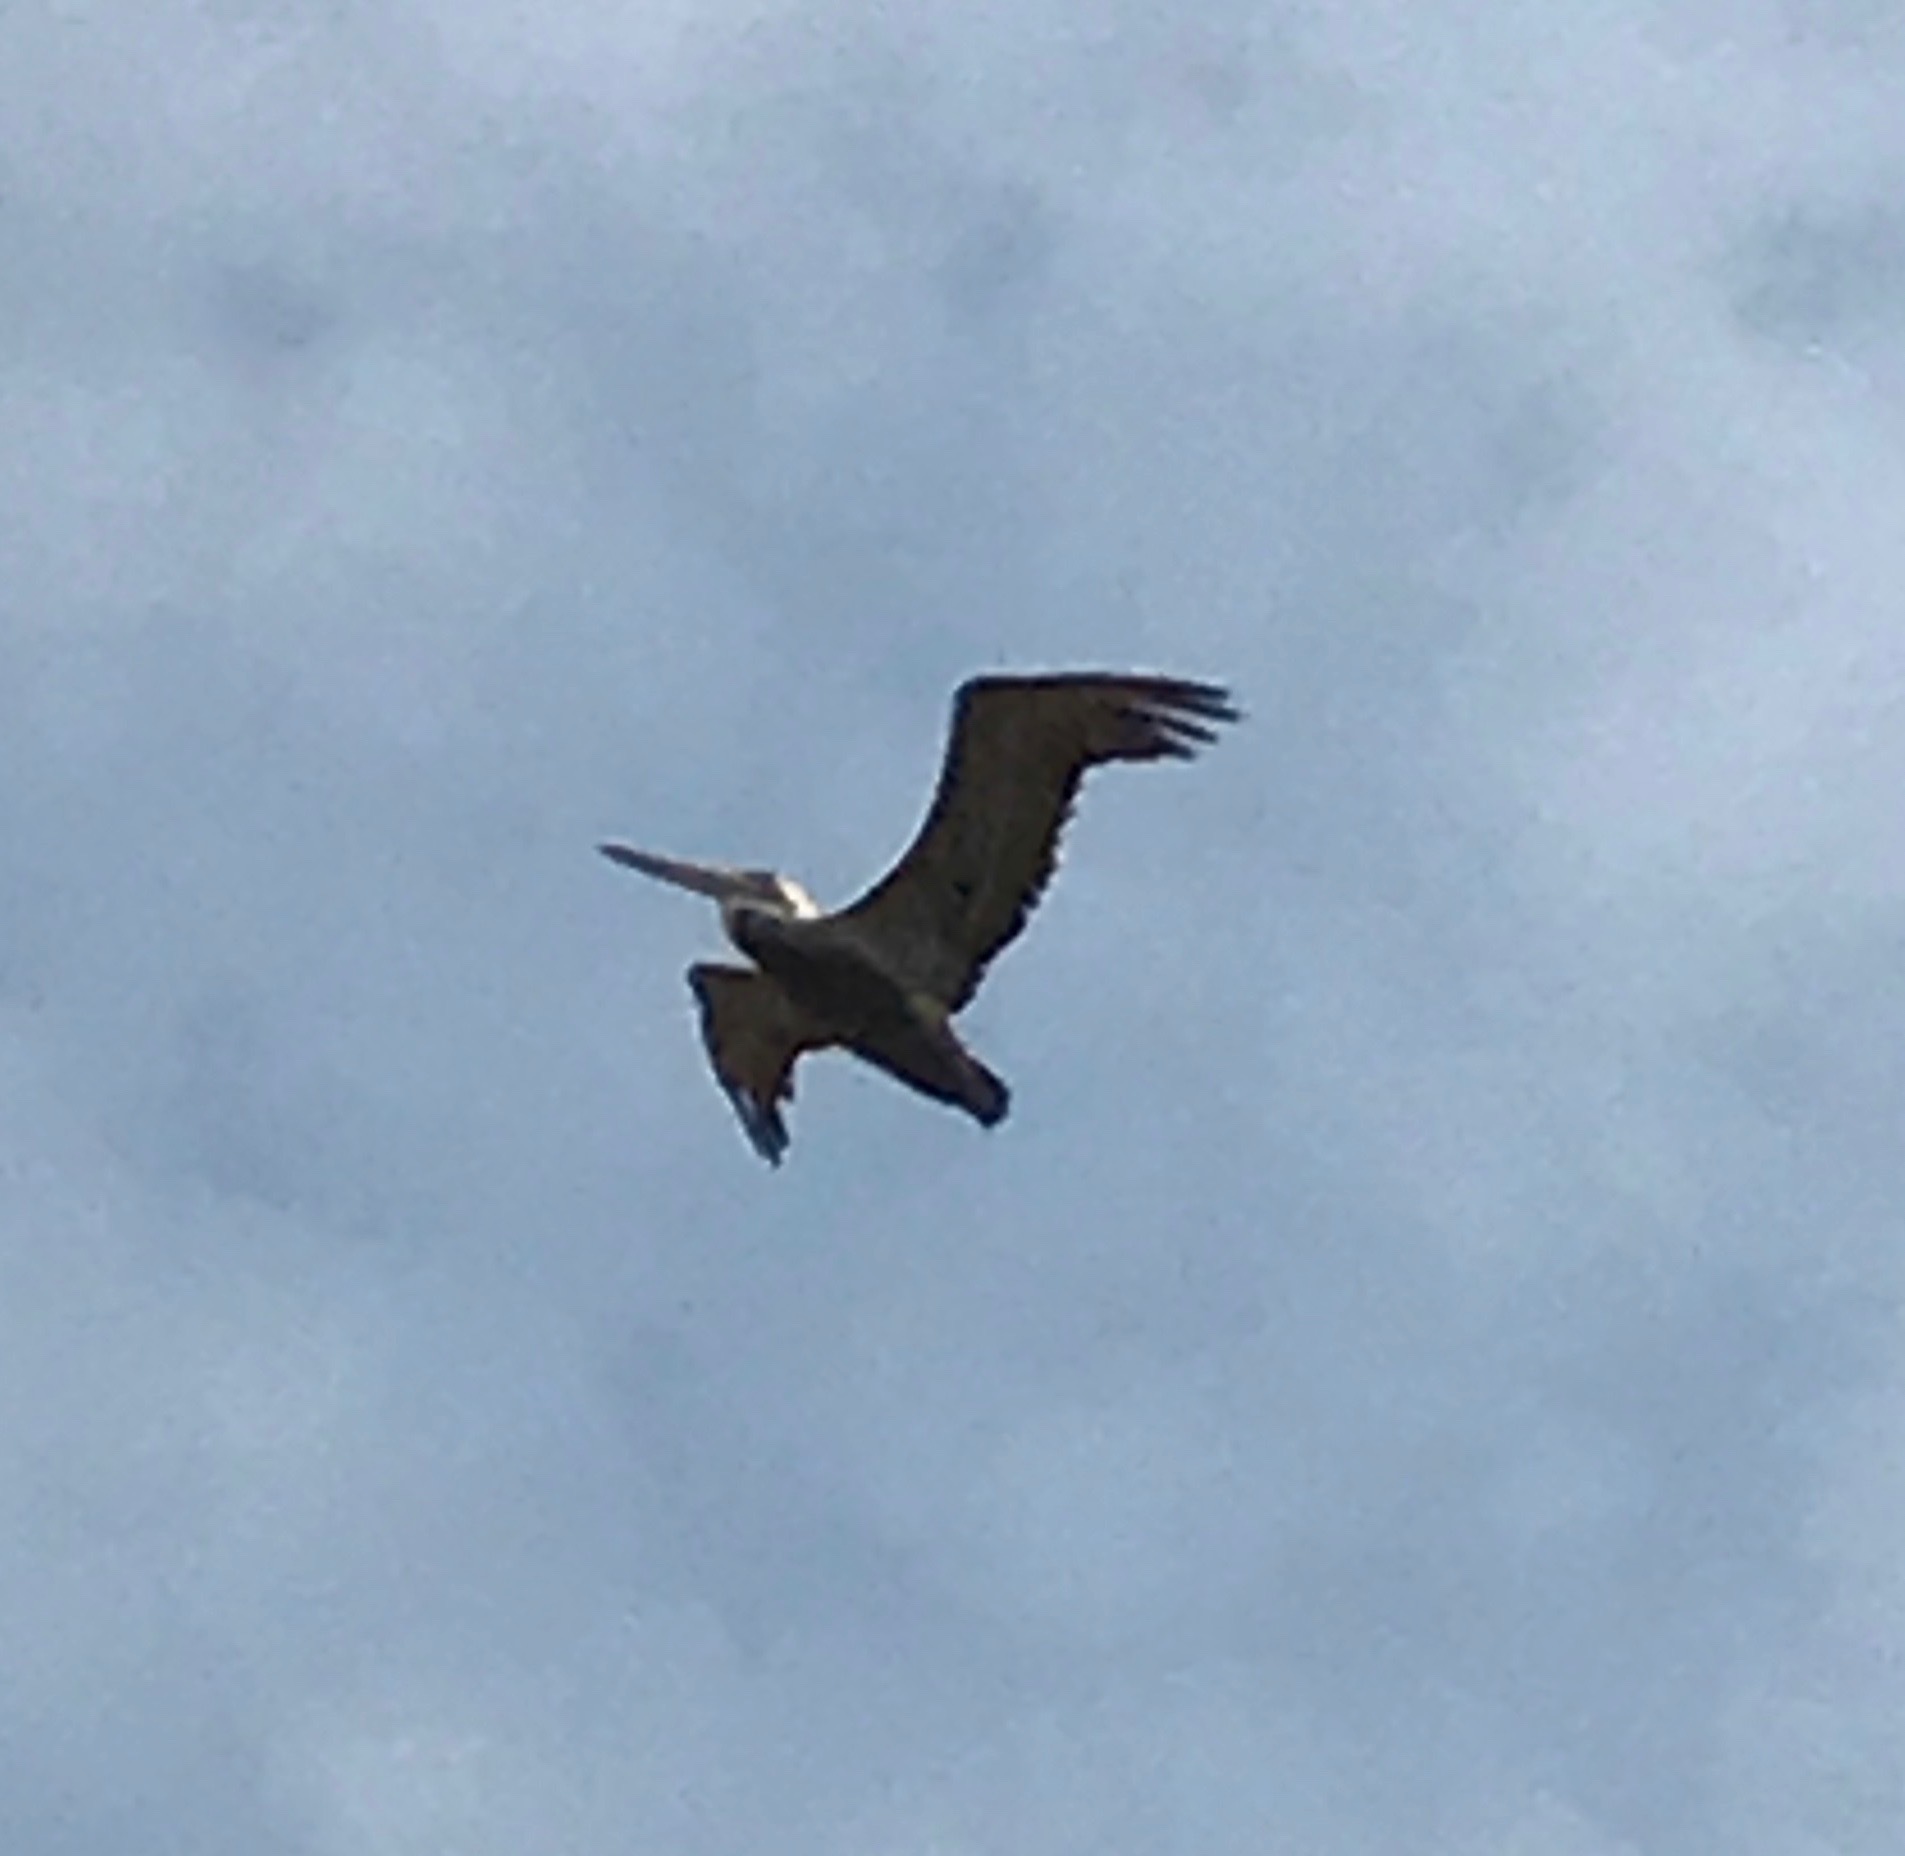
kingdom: Animalia
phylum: Chordata
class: Aves
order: Pelecaniformes
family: Pelecanidae
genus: Pelecanus
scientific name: Pelecanus occidentalis
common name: Brown pelican
